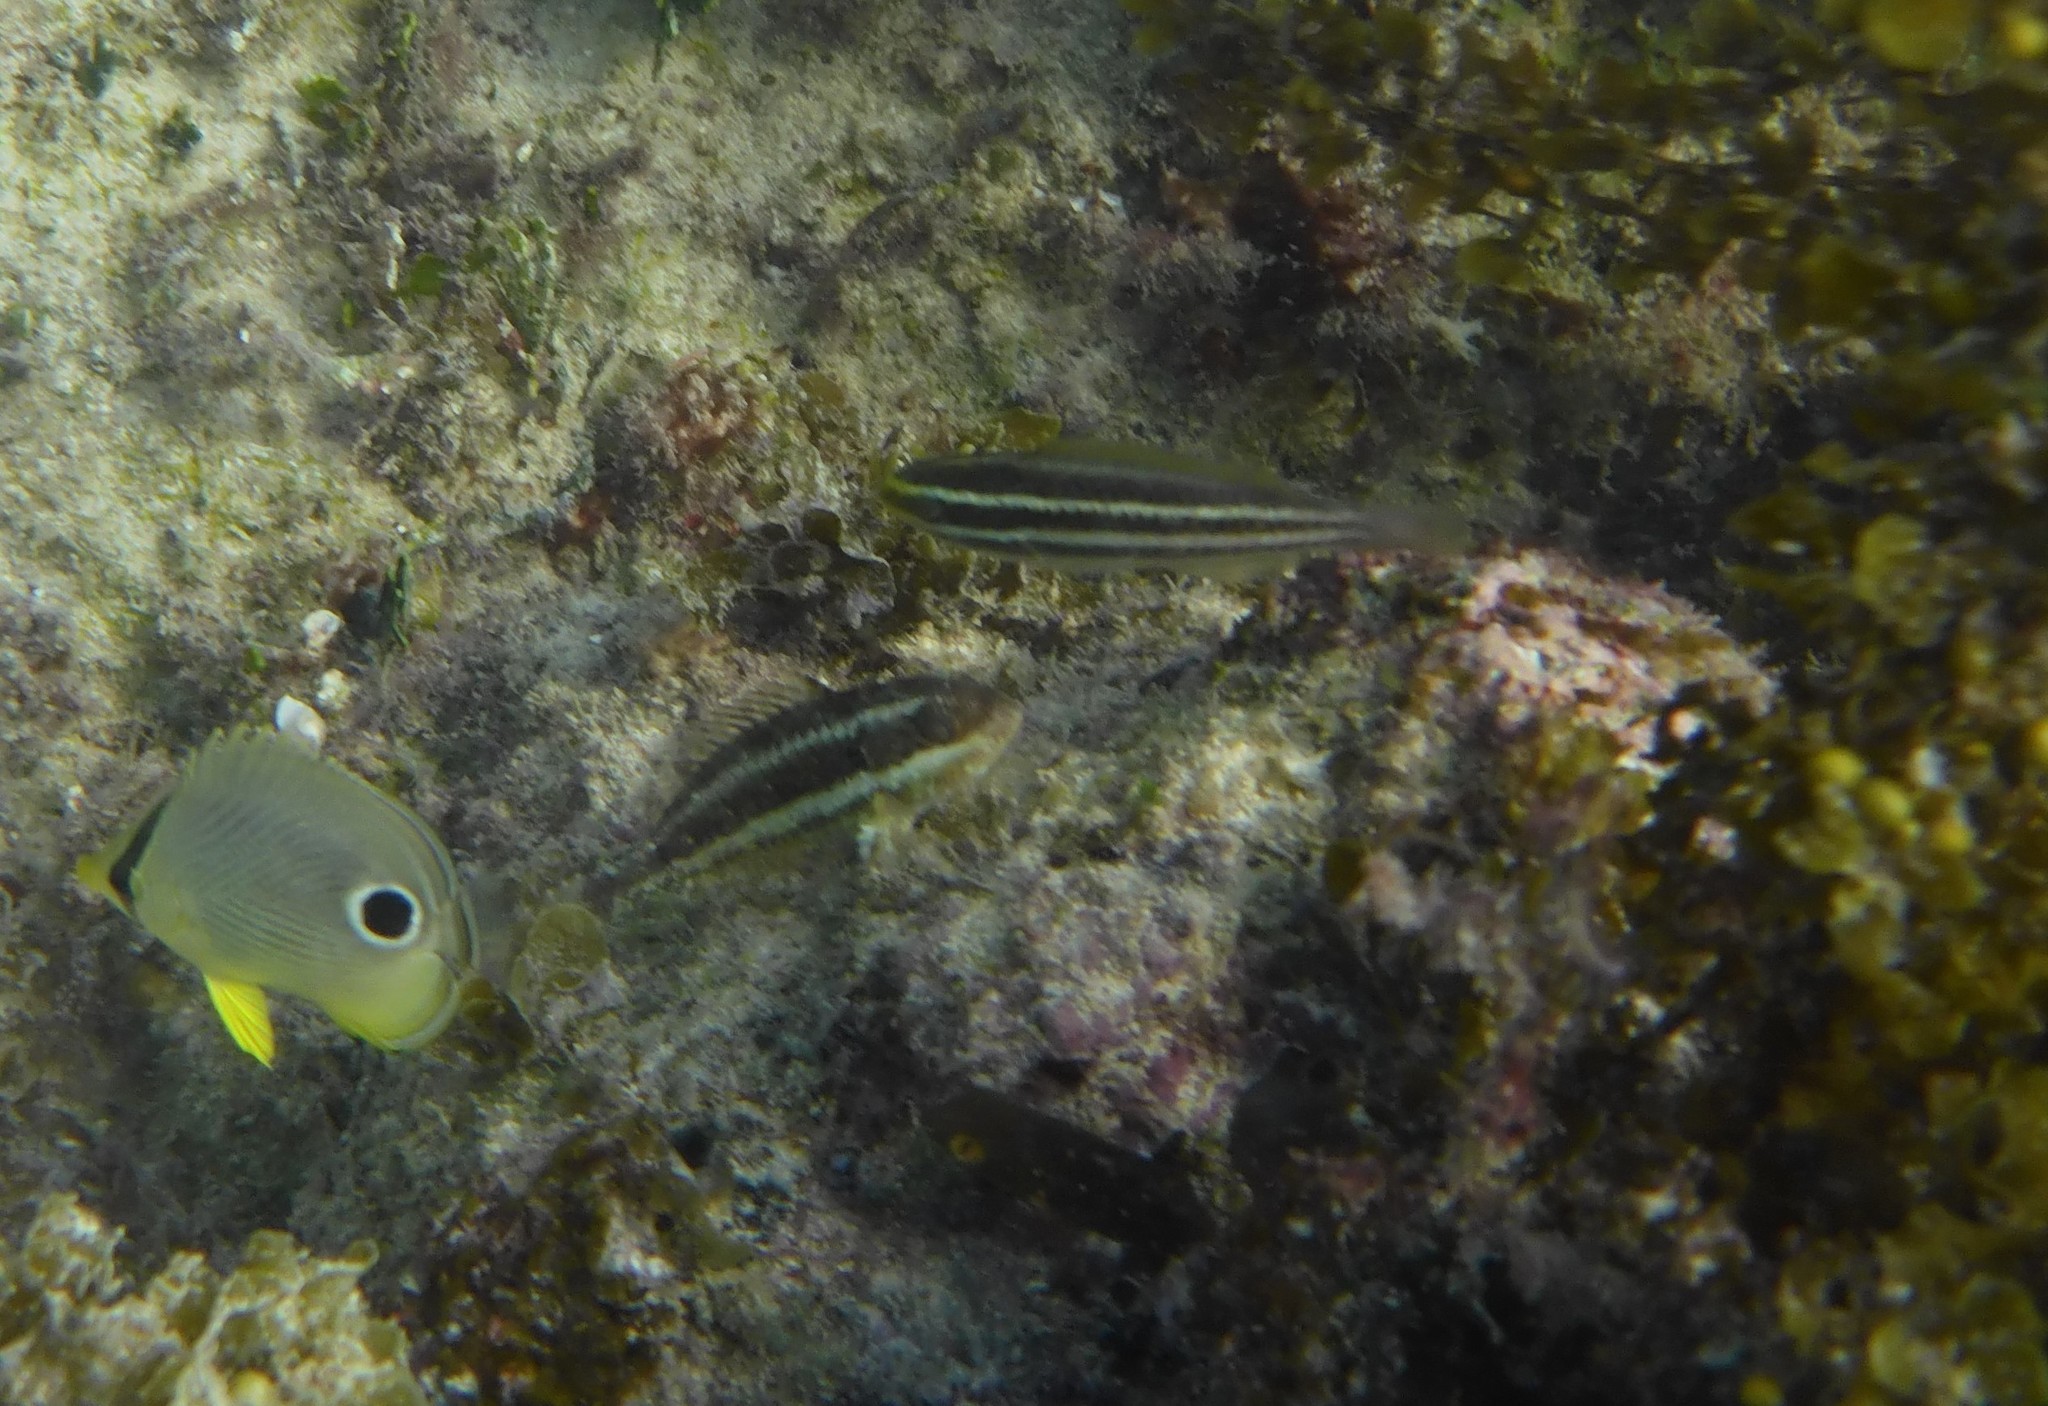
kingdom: Animalia
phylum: Chordata
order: Perciformes
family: Scaridae
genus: Scarus
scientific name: Scarus iseri
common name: Striped parrotfish
